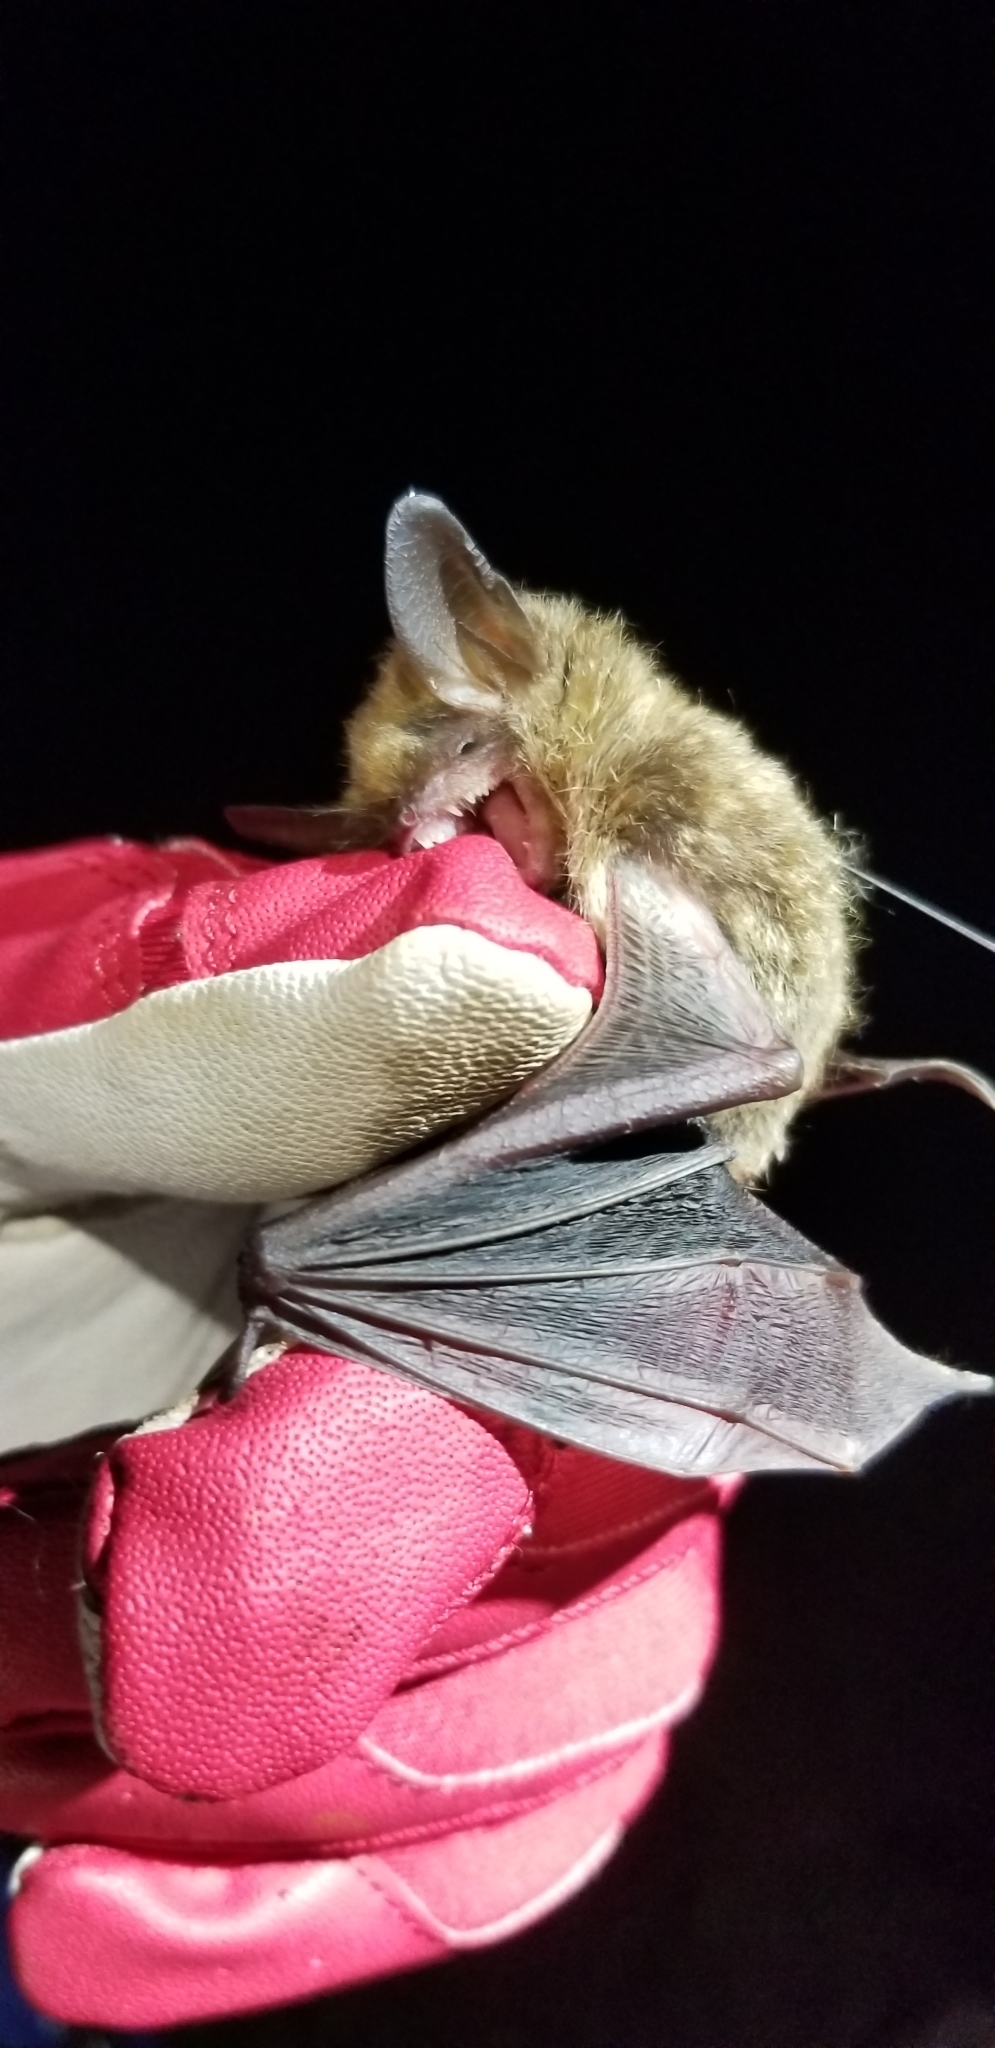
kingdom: Animalia
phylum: Chordata
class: Mammalia
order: Chiroptera
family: Vespertilionidae
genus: Myotis
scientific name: Myotis septentrionalis
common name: Northern myotis
